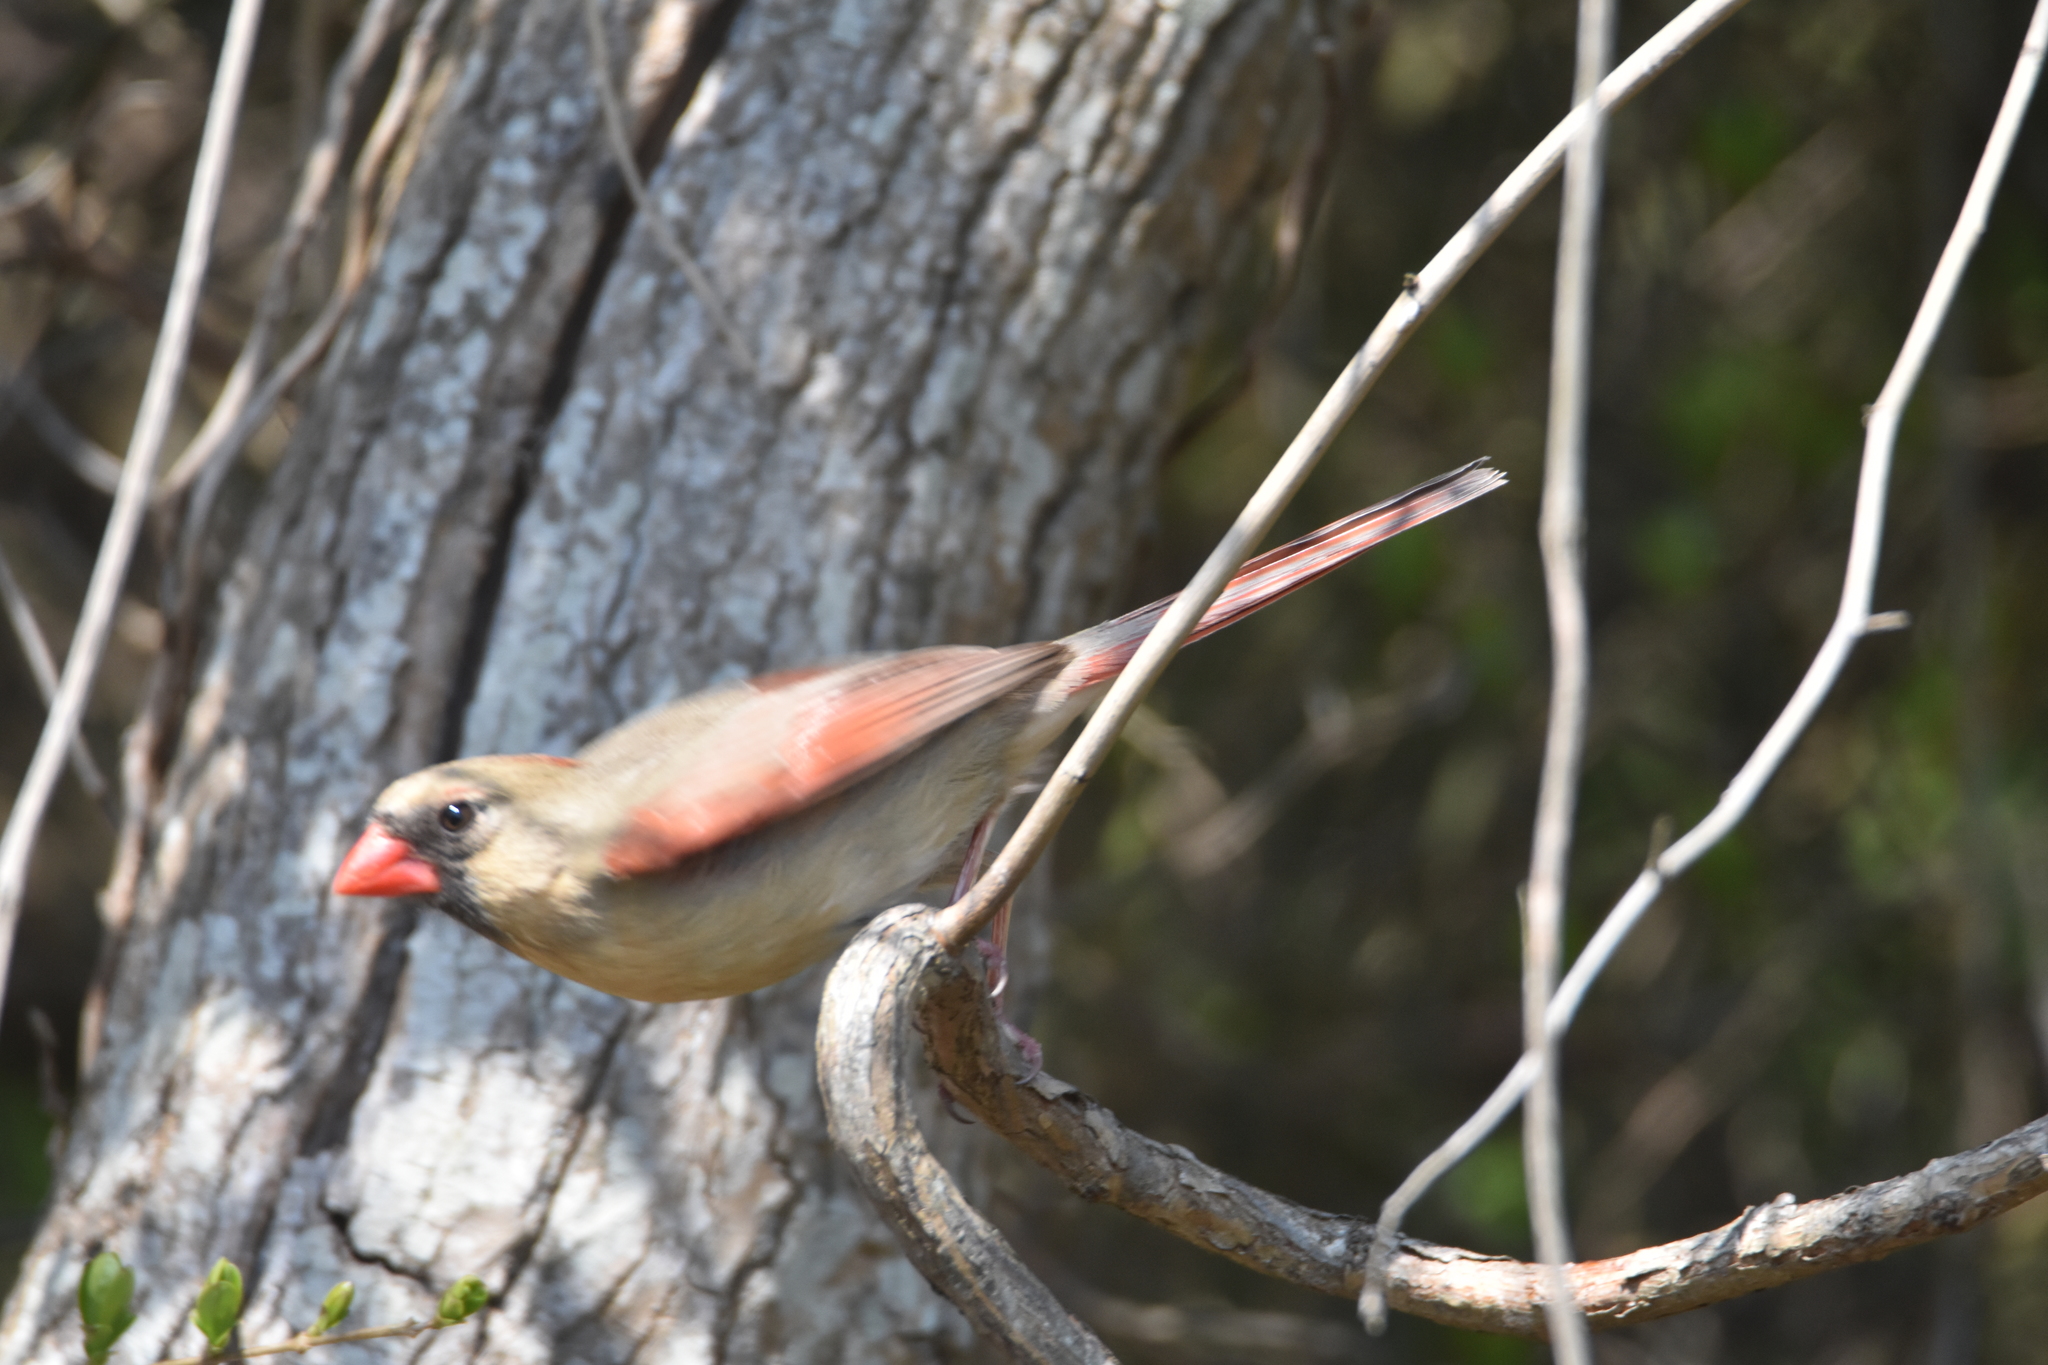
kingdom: Animalia
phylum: Chordata
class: Aves
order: Passeriformes
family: Cardinalidae
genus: Cardinalis
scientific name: Cardinalis cardinalis
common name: Northern cardinal
